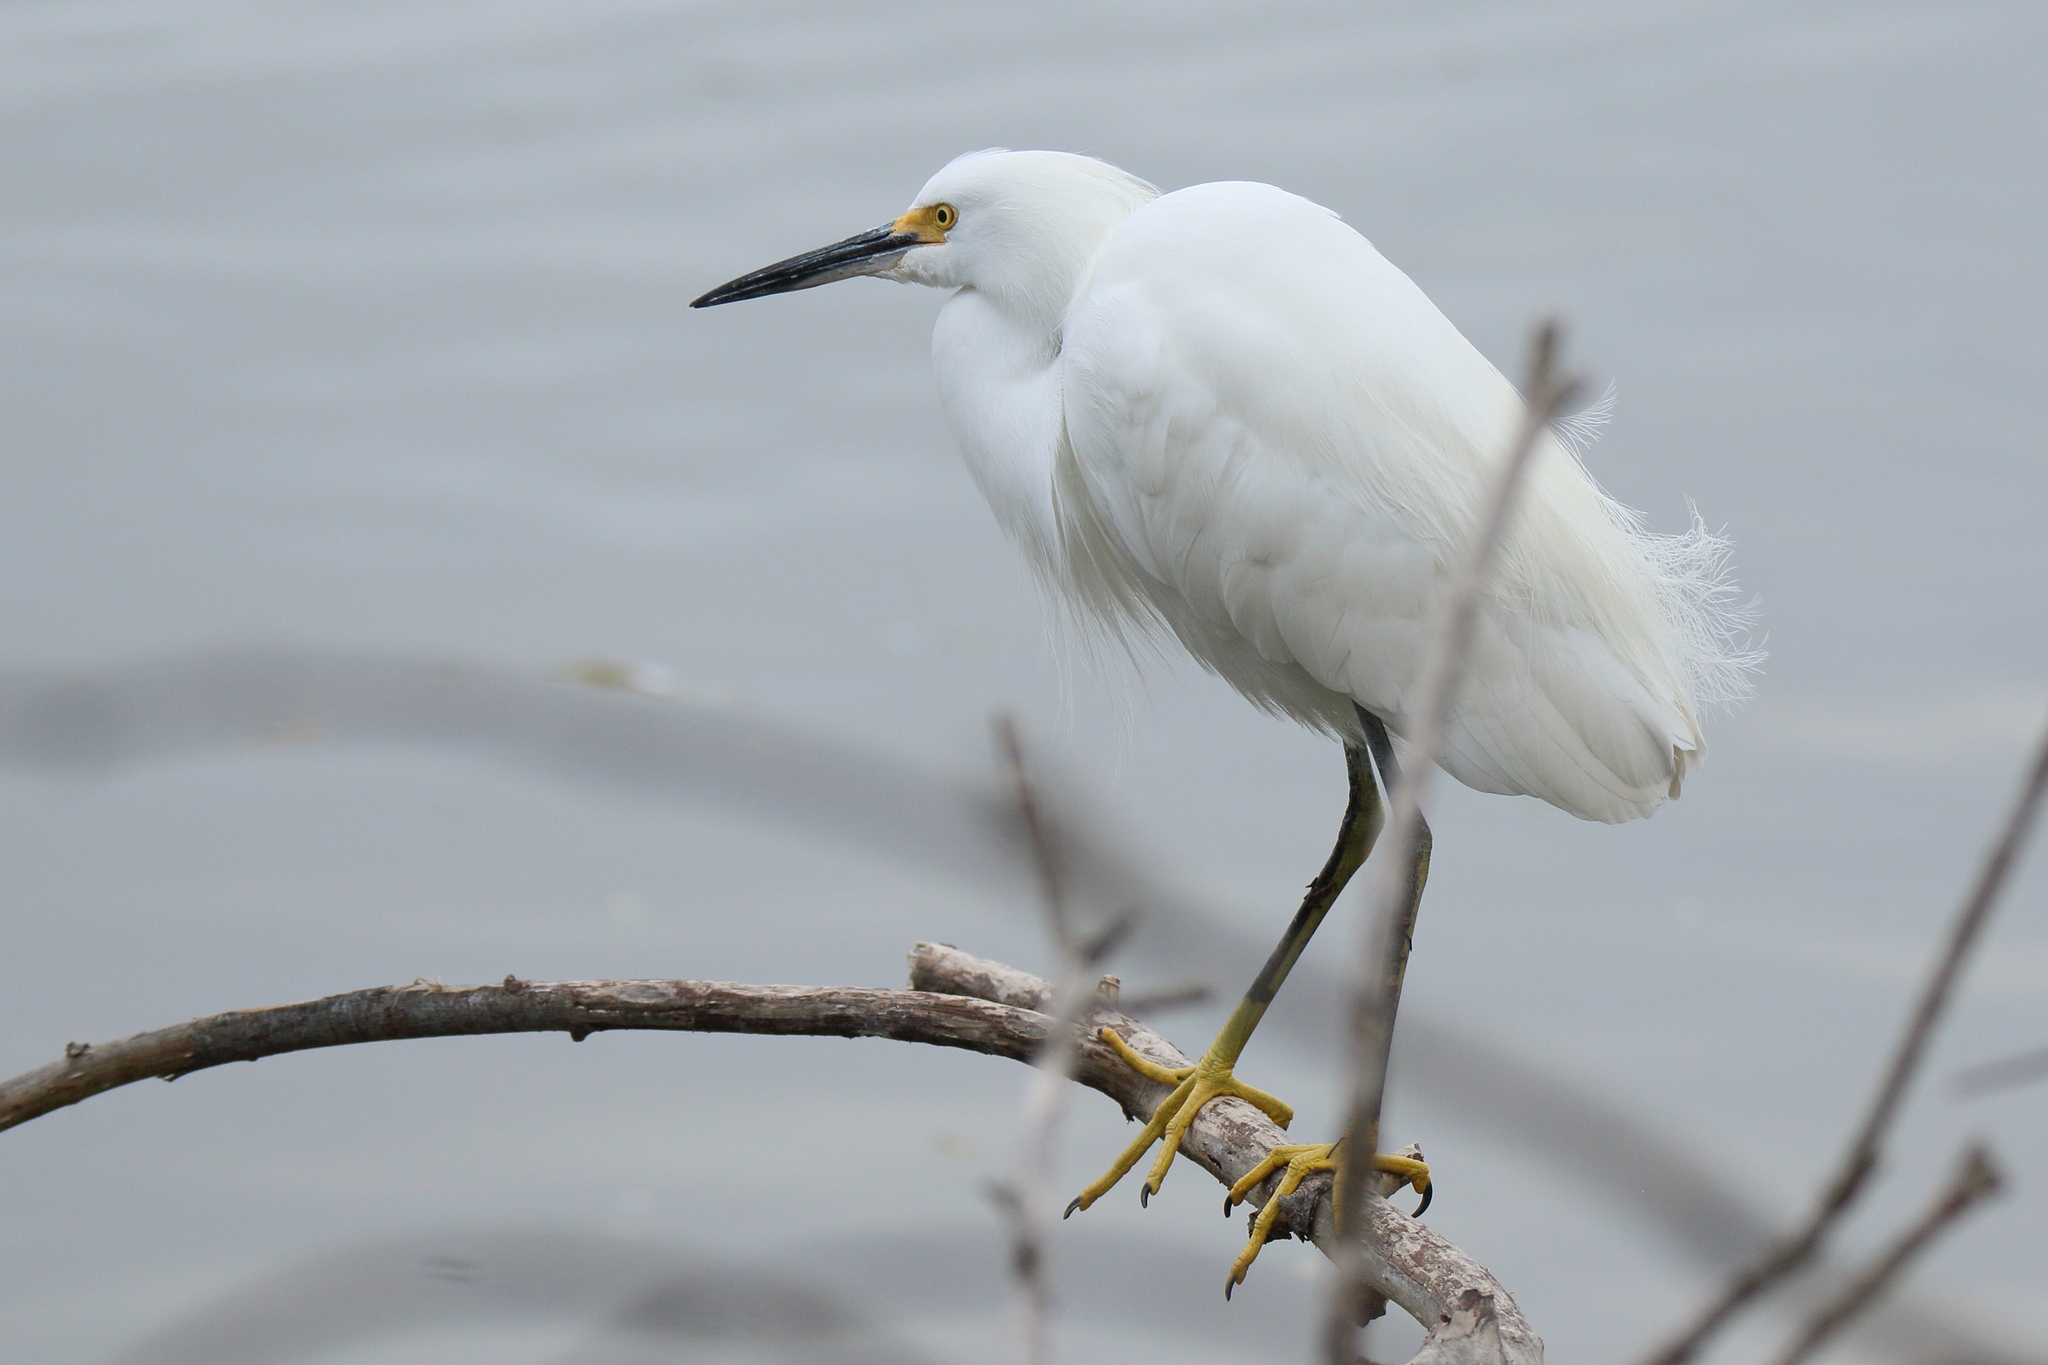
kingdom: Animalia
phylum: Chordata
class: Aves
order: Pelecaniformes
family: Ardeidae
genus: Egretta
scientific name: Egretta thula
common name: Snowy egret
